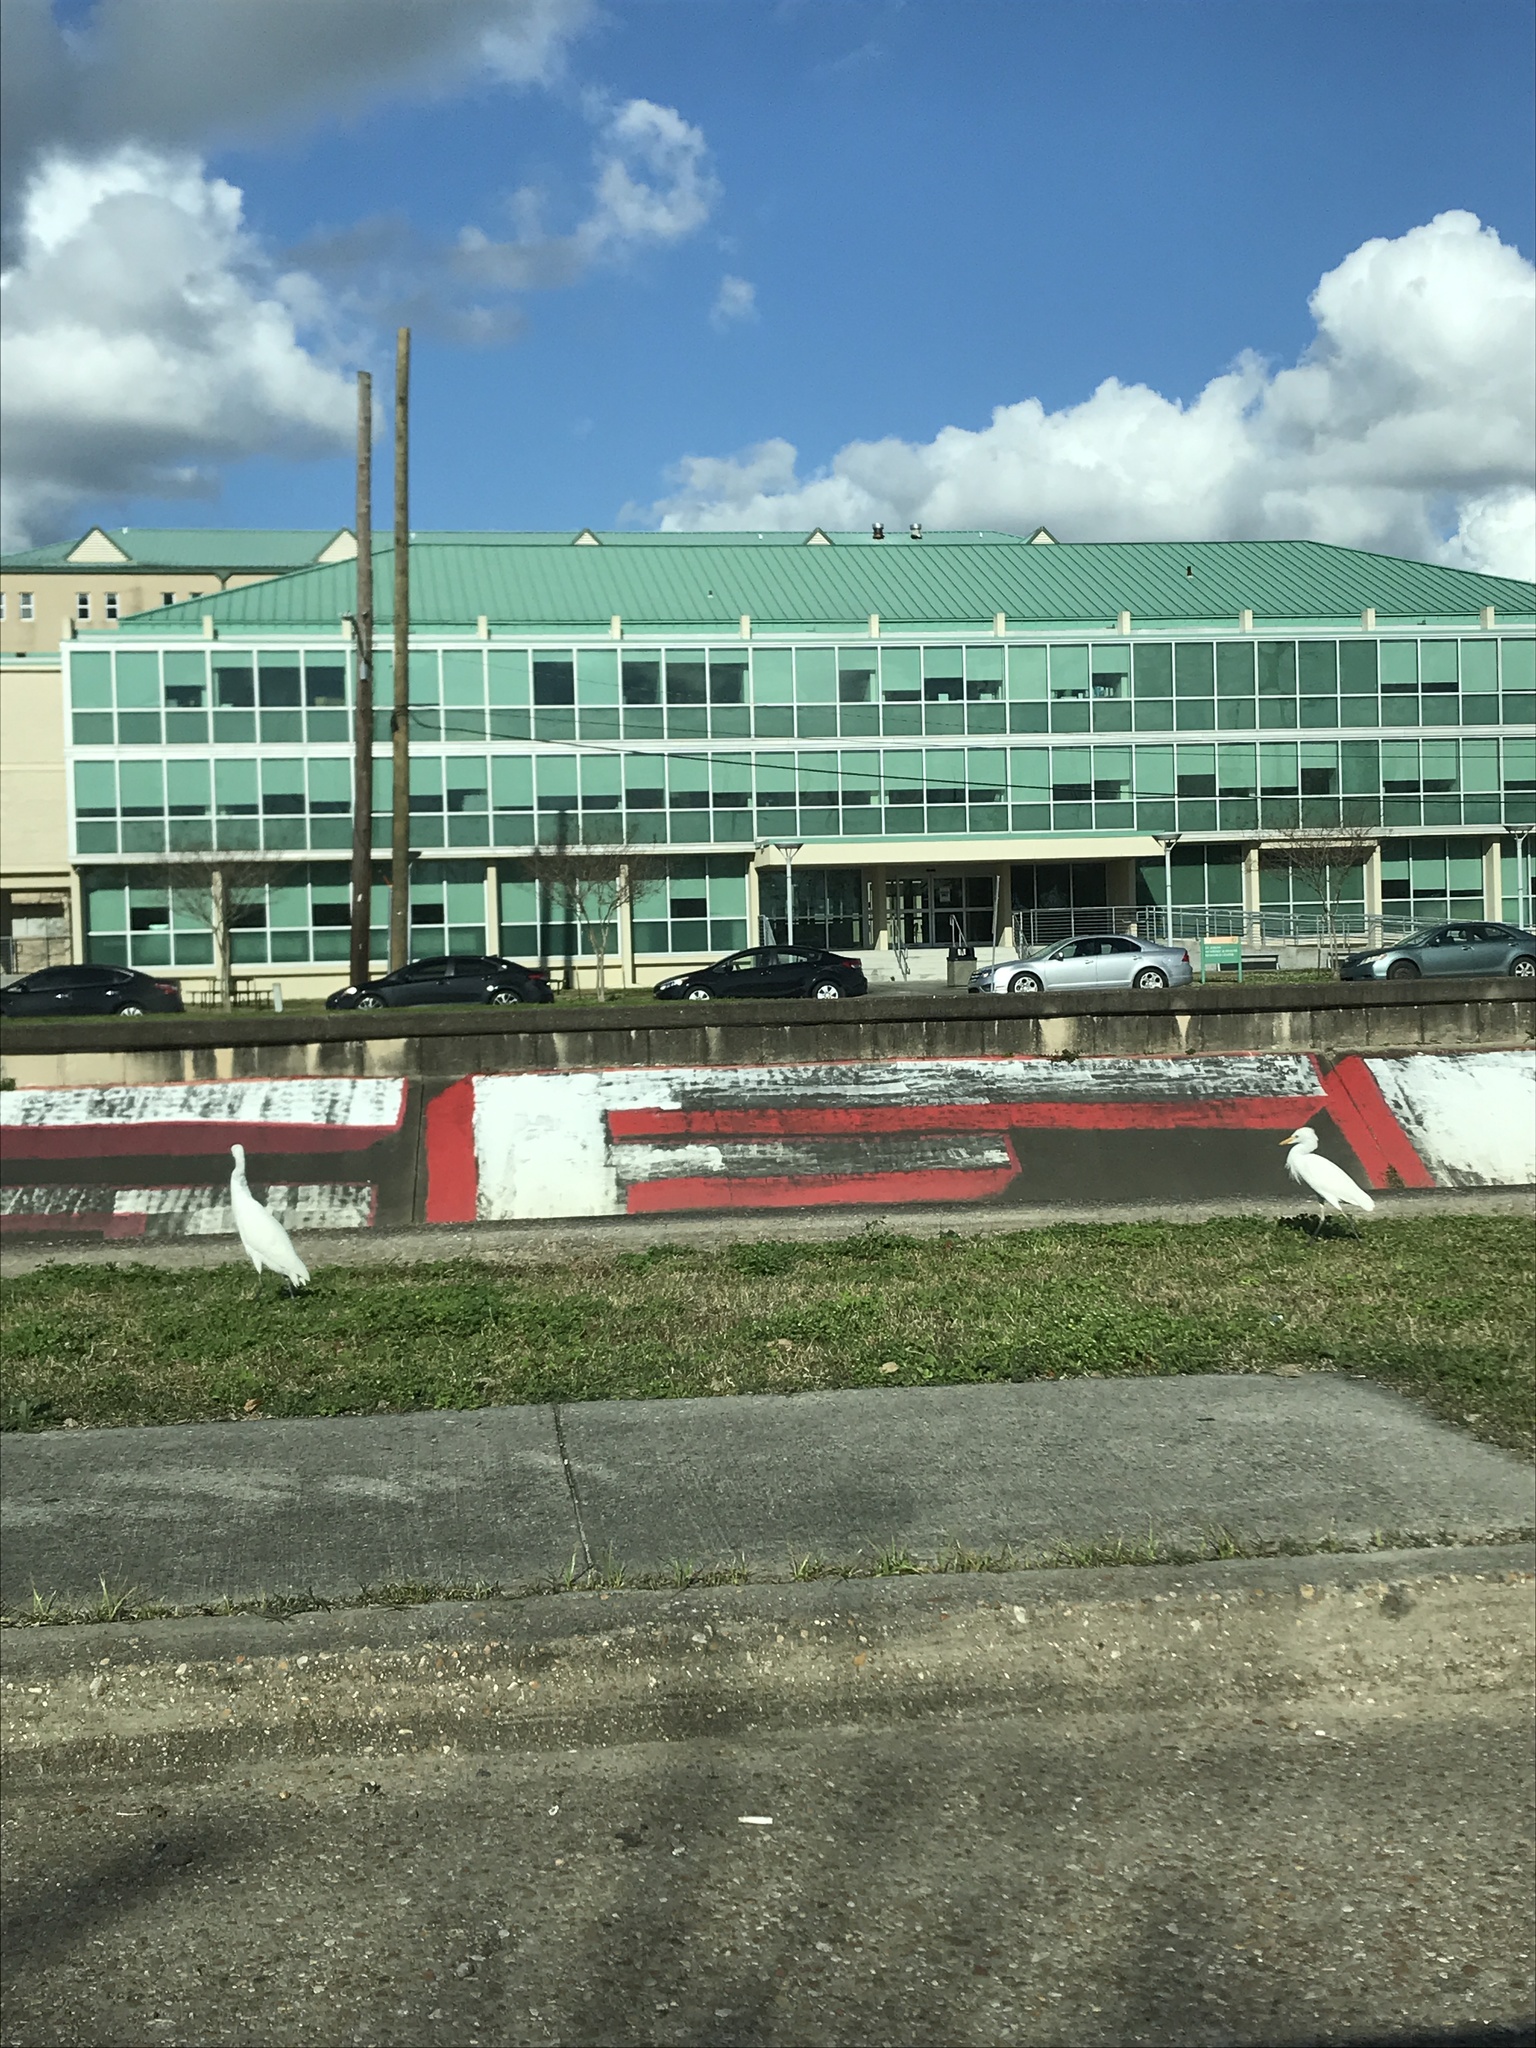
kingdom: Animalia
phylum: Chordata
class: Aves
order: Pelecaniformes
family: Ardeidae
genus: Bubulcus
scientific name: Bubulcus ibis
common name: Cattle egret
